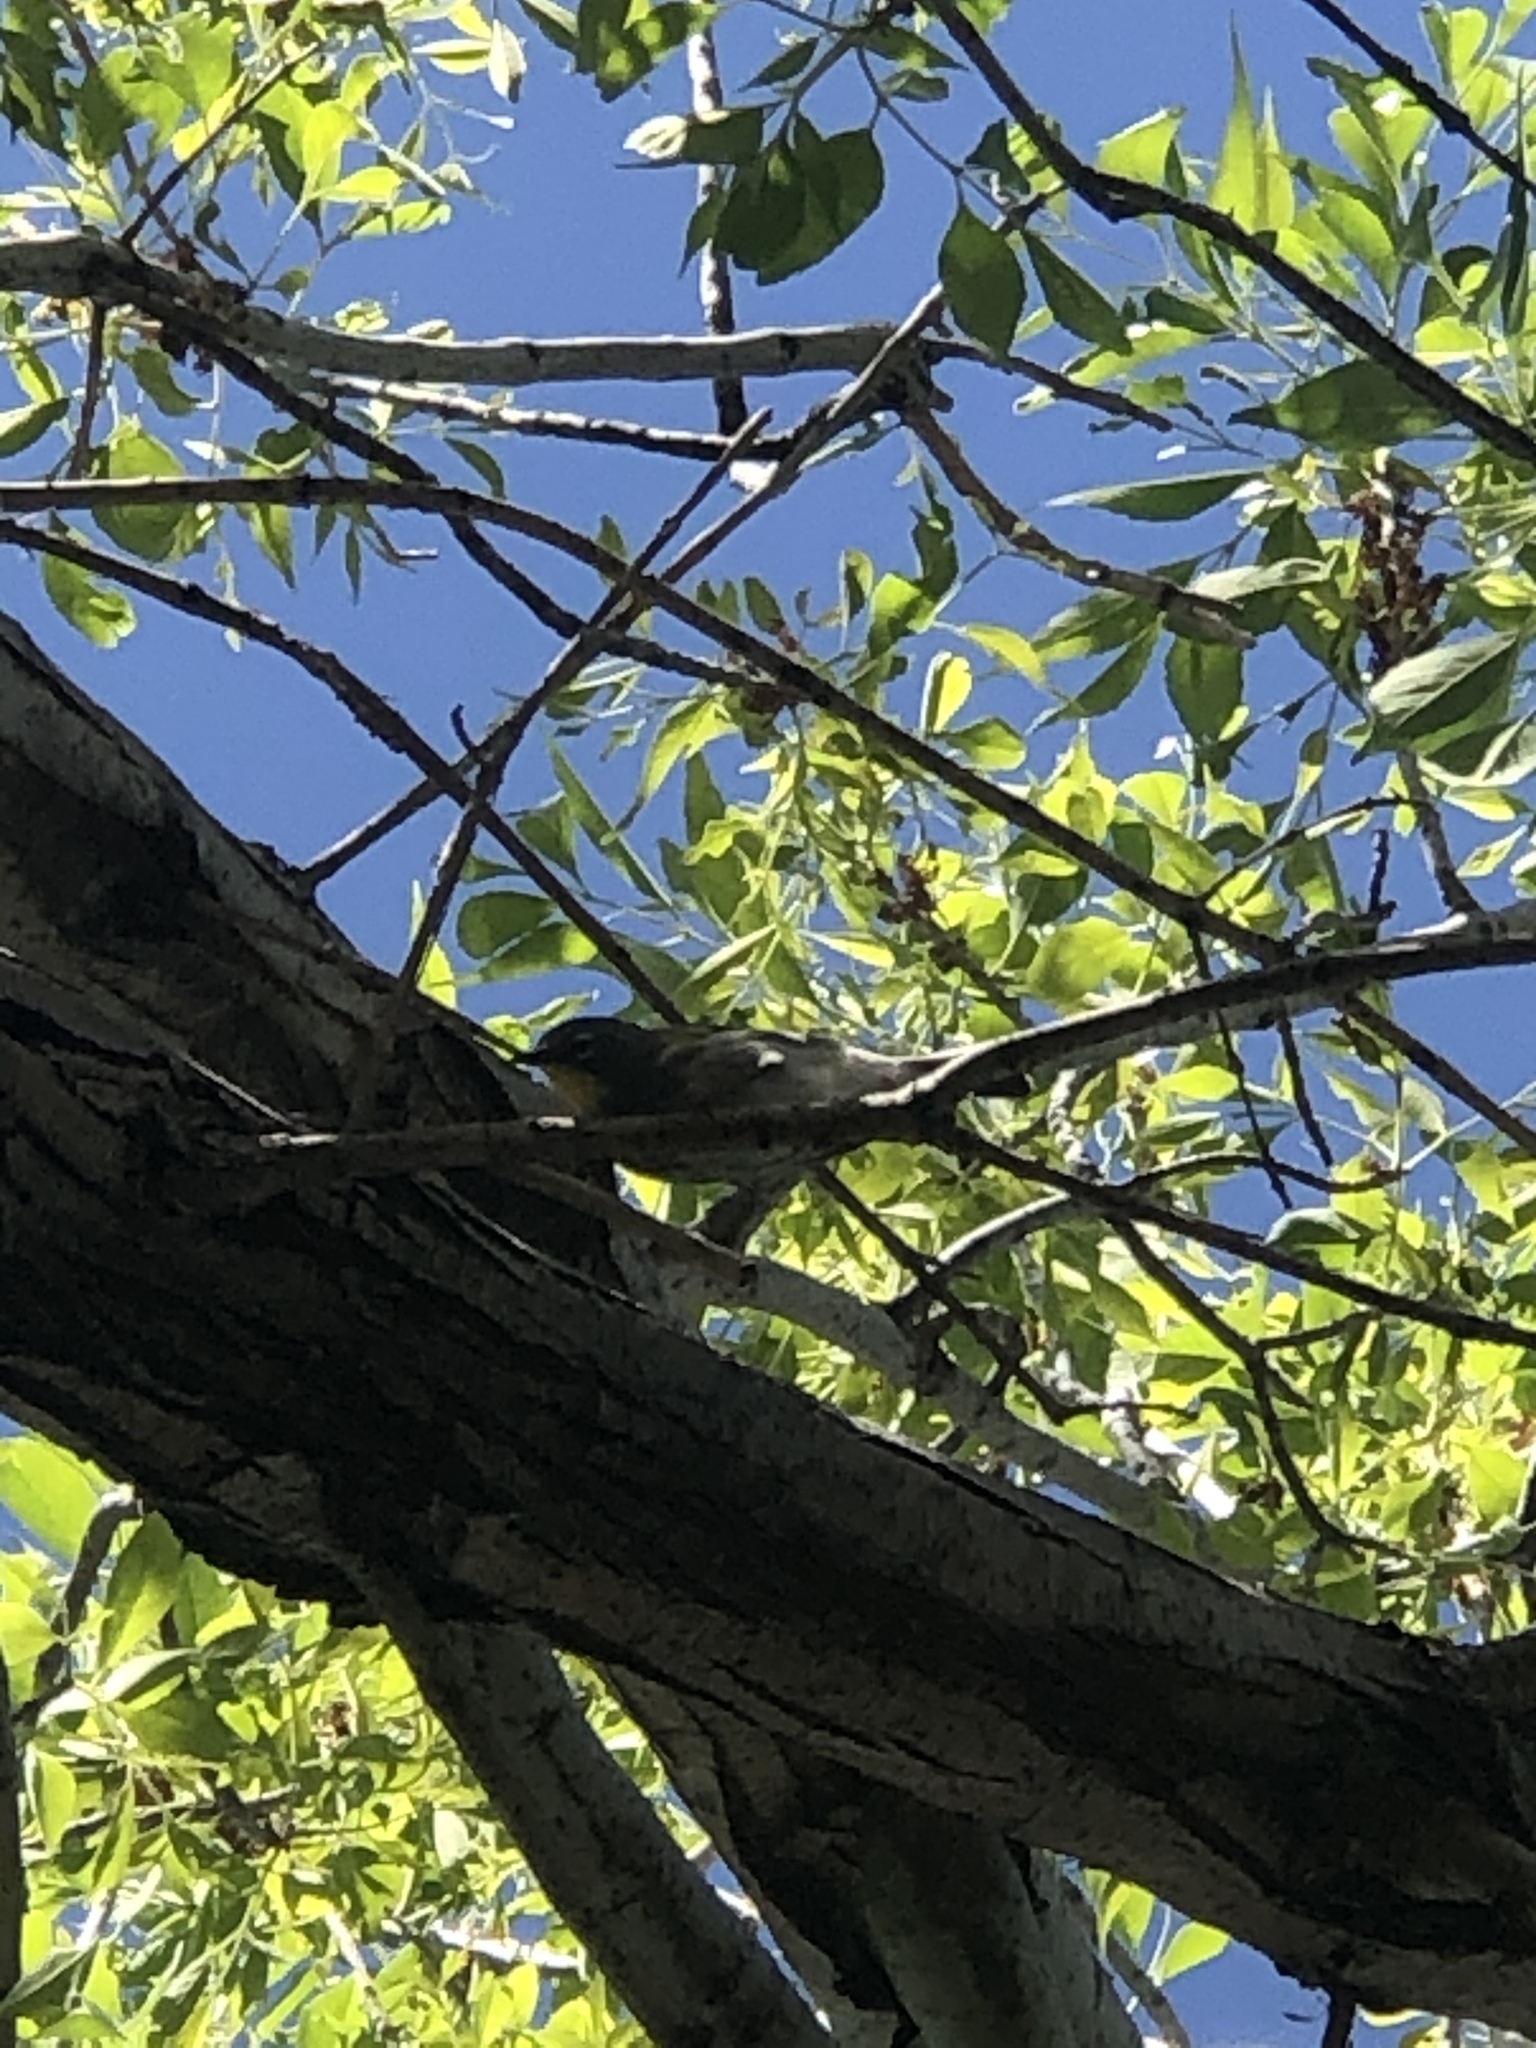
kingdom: Animalia
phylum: Chordata
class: Aves
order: Passeriformes
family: Parulidae
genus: Setophaga
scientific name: Setophaga auduboni
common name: Audubon's warbler
